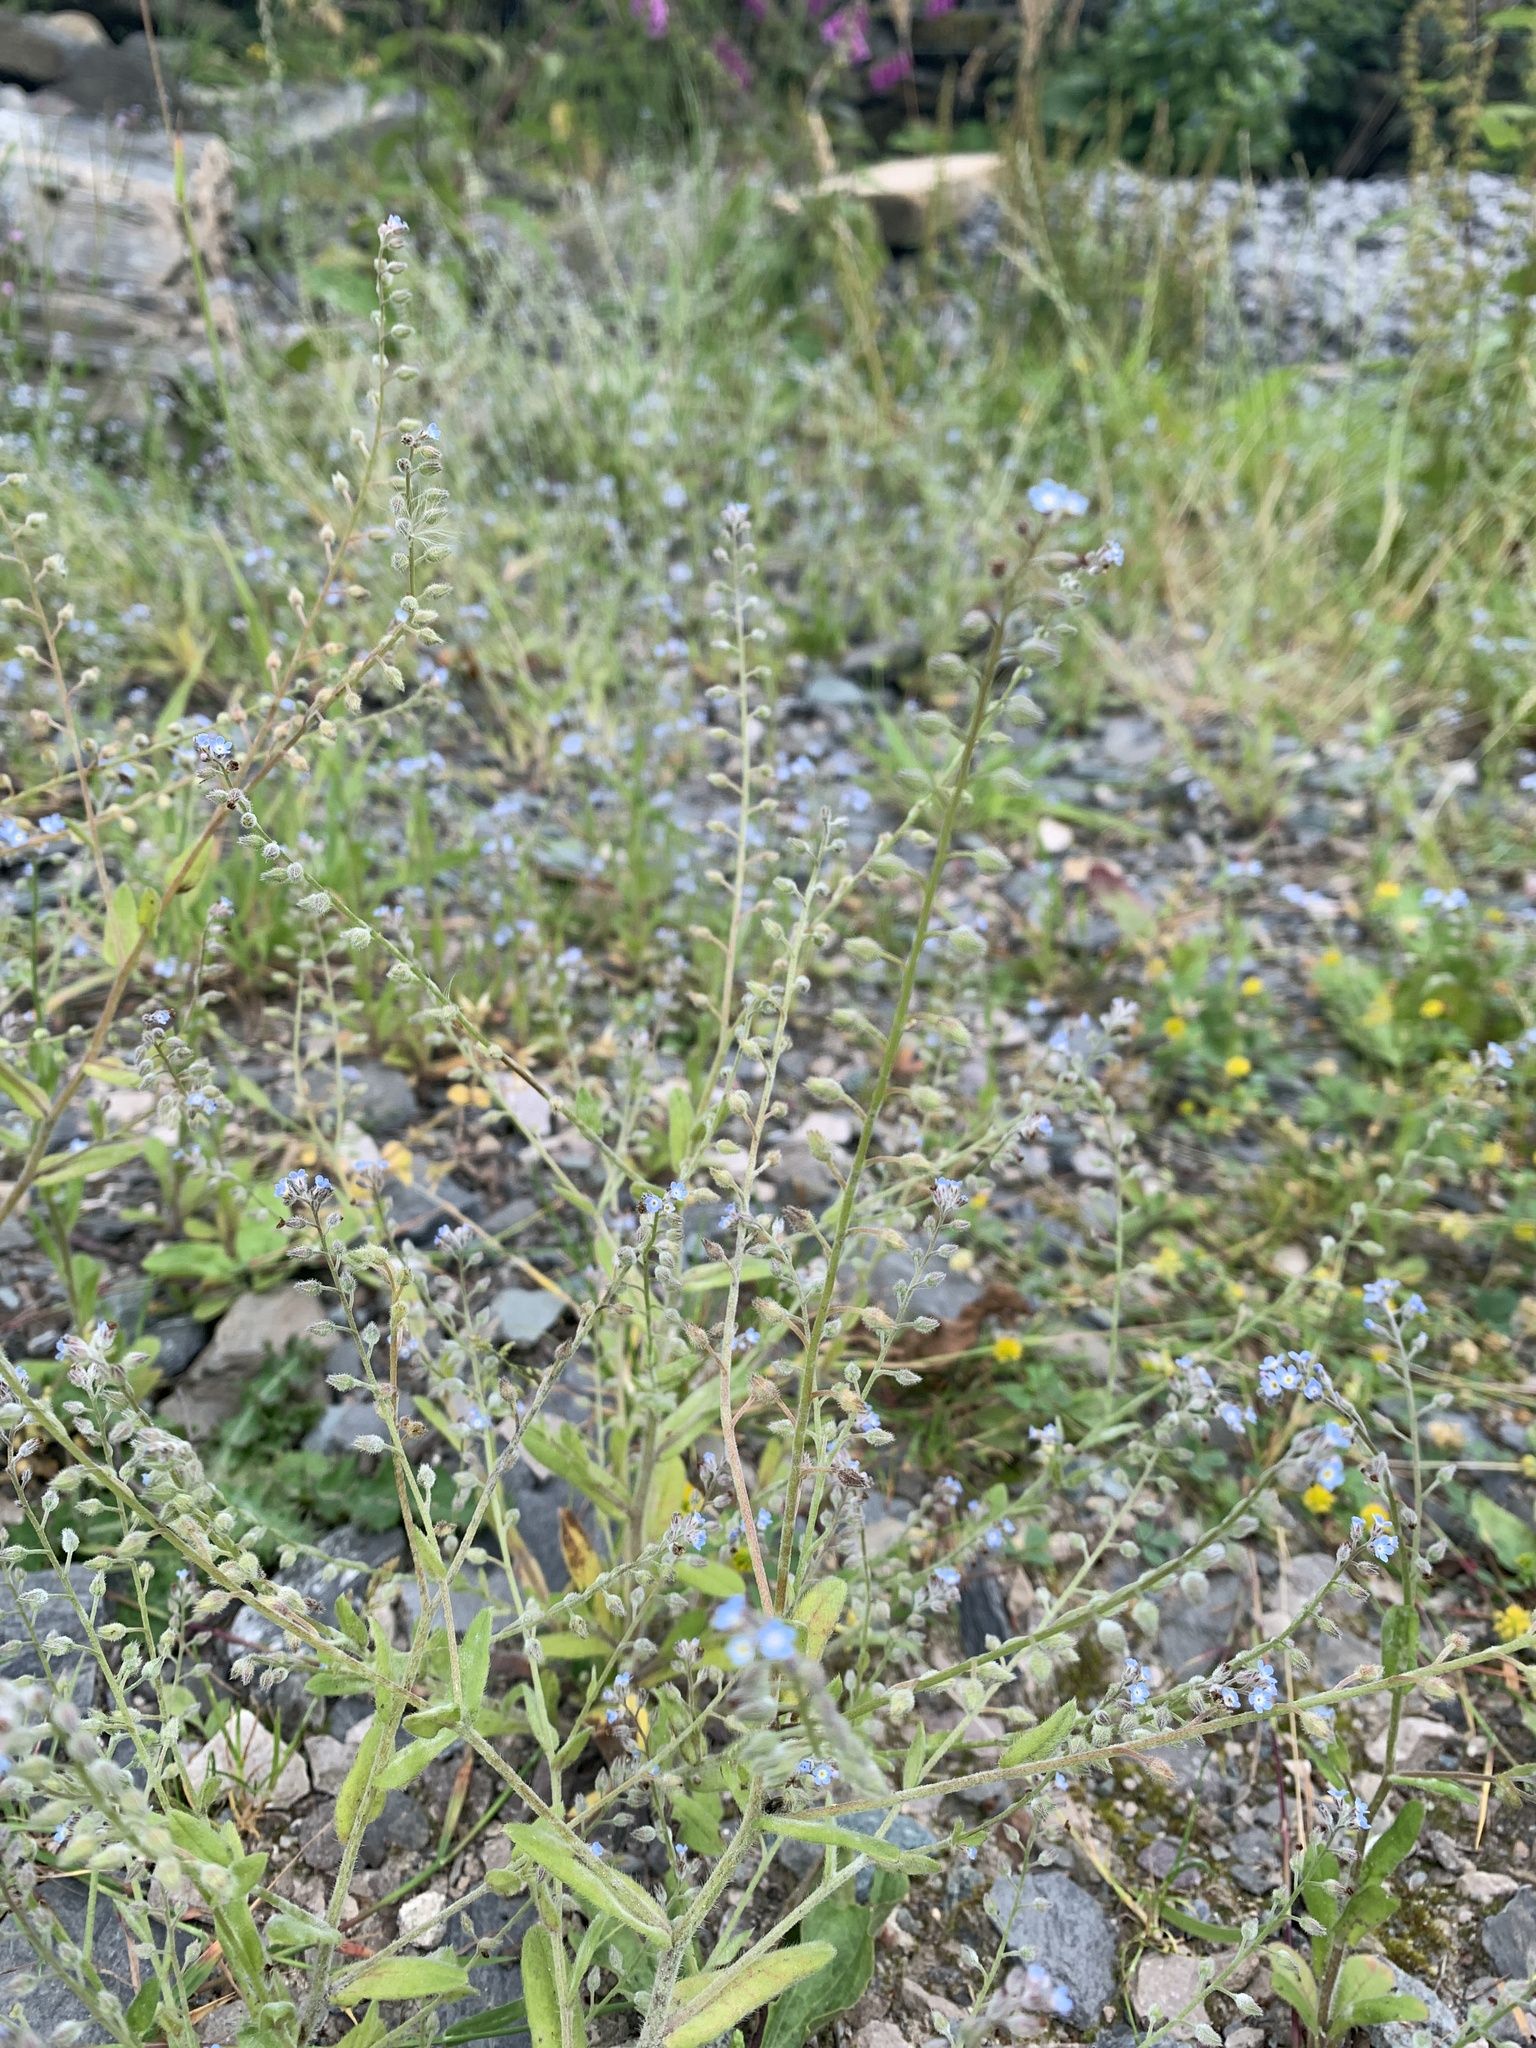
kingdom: Plantae
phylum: Tracheophyta
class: Magnoliopsida
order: Boraginales
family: Boraginaceae
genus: Myosotis
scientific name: Myosotis arvensis
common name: Field forget-me-not
